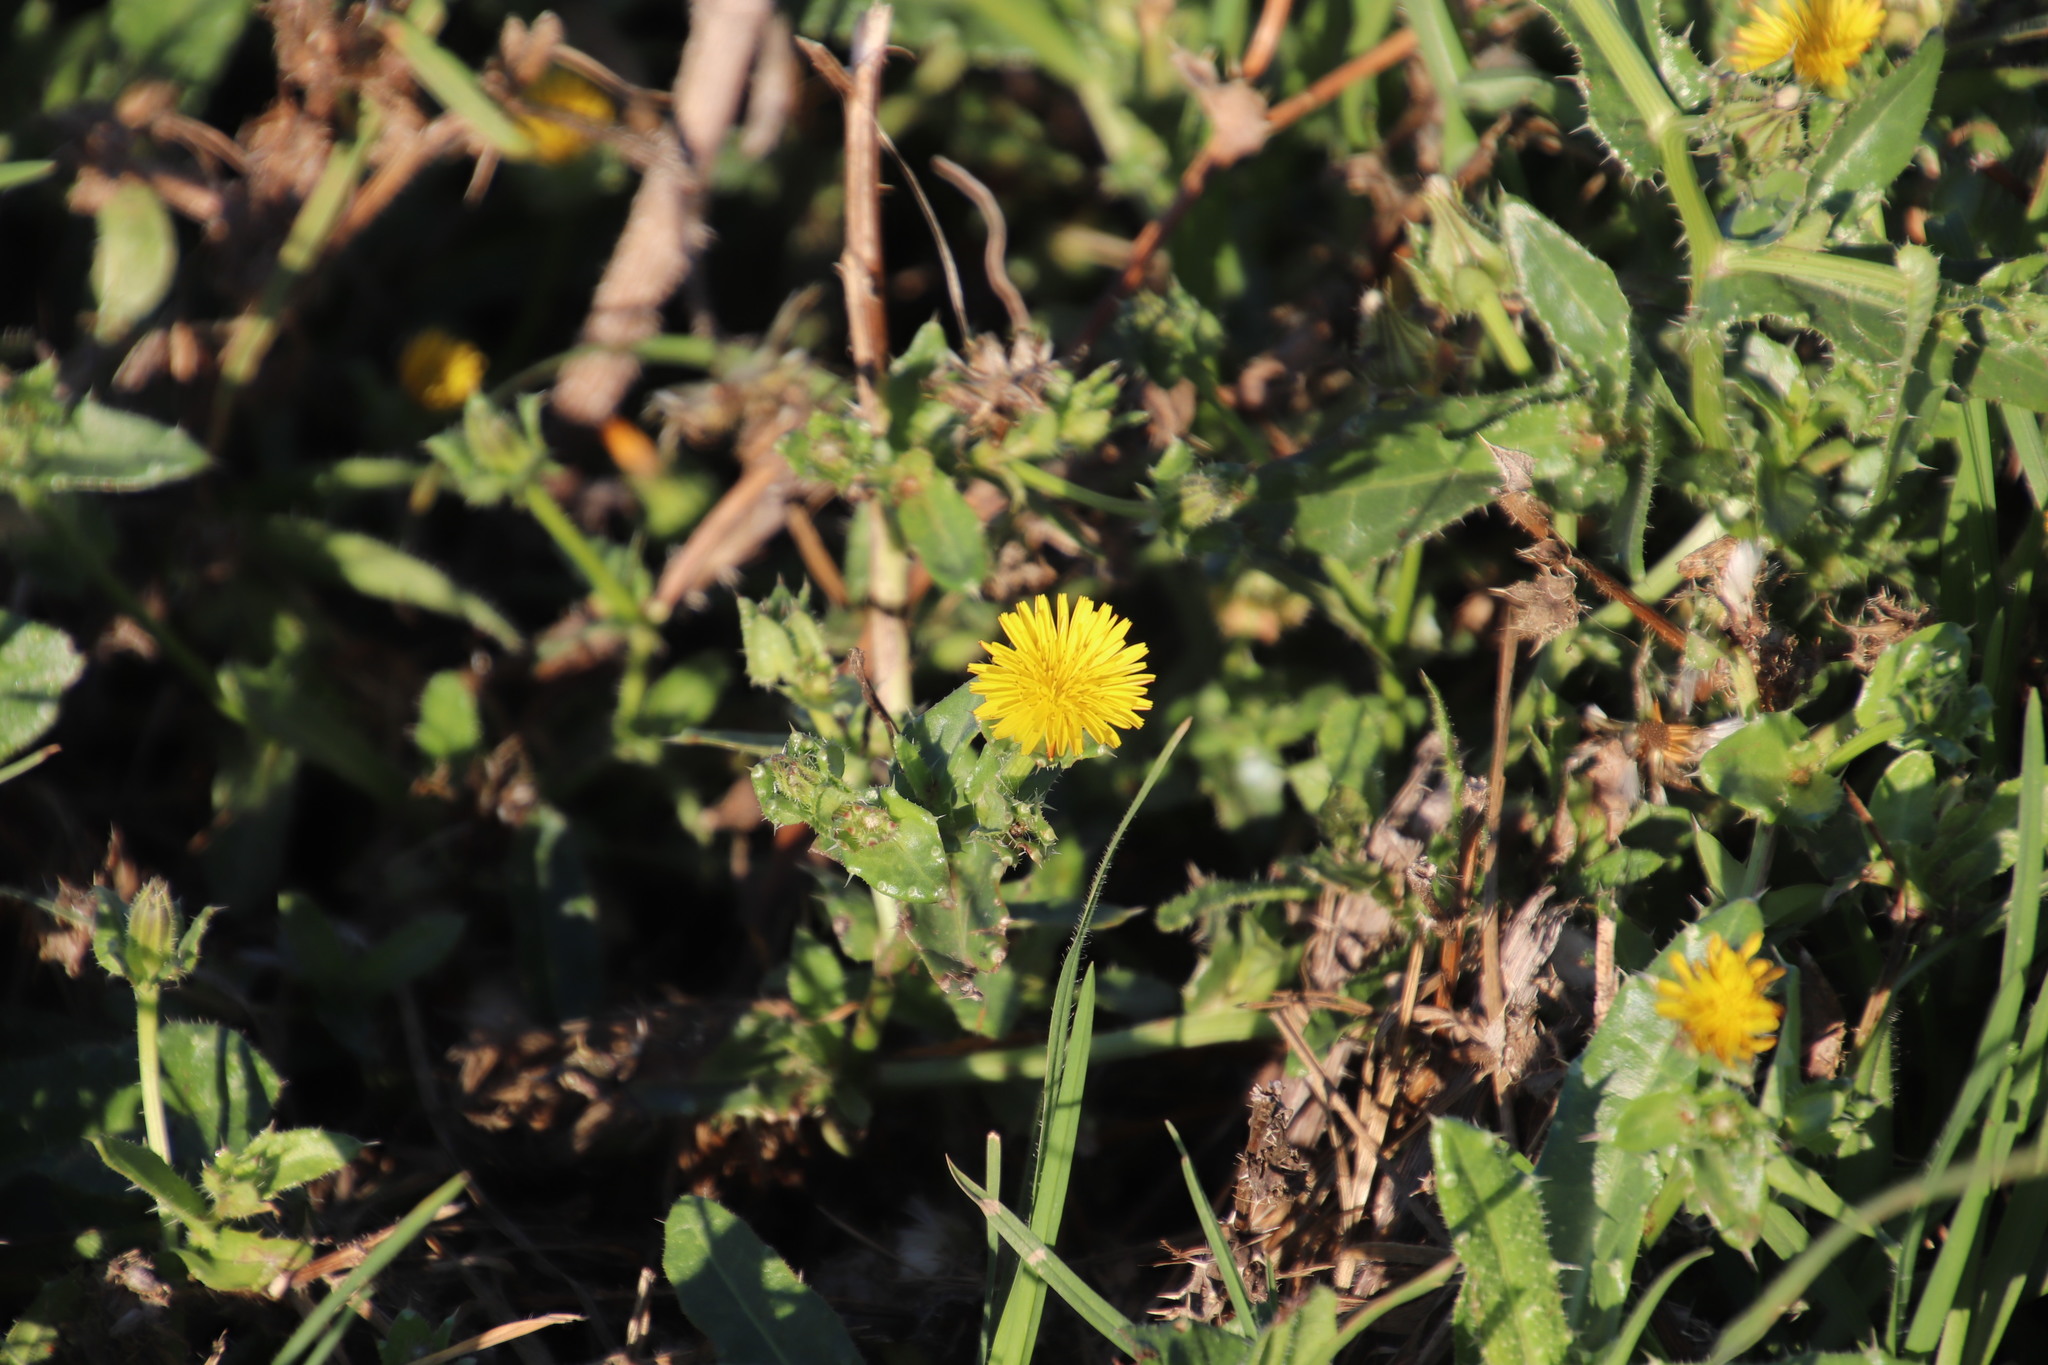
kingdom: Plantae
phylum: Tracheophyta
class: Magnoliopsida
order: Asterales
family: Asteraceae
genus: Helminthotheca
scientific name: Helminthotheca echioides
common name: Ox-tongue
